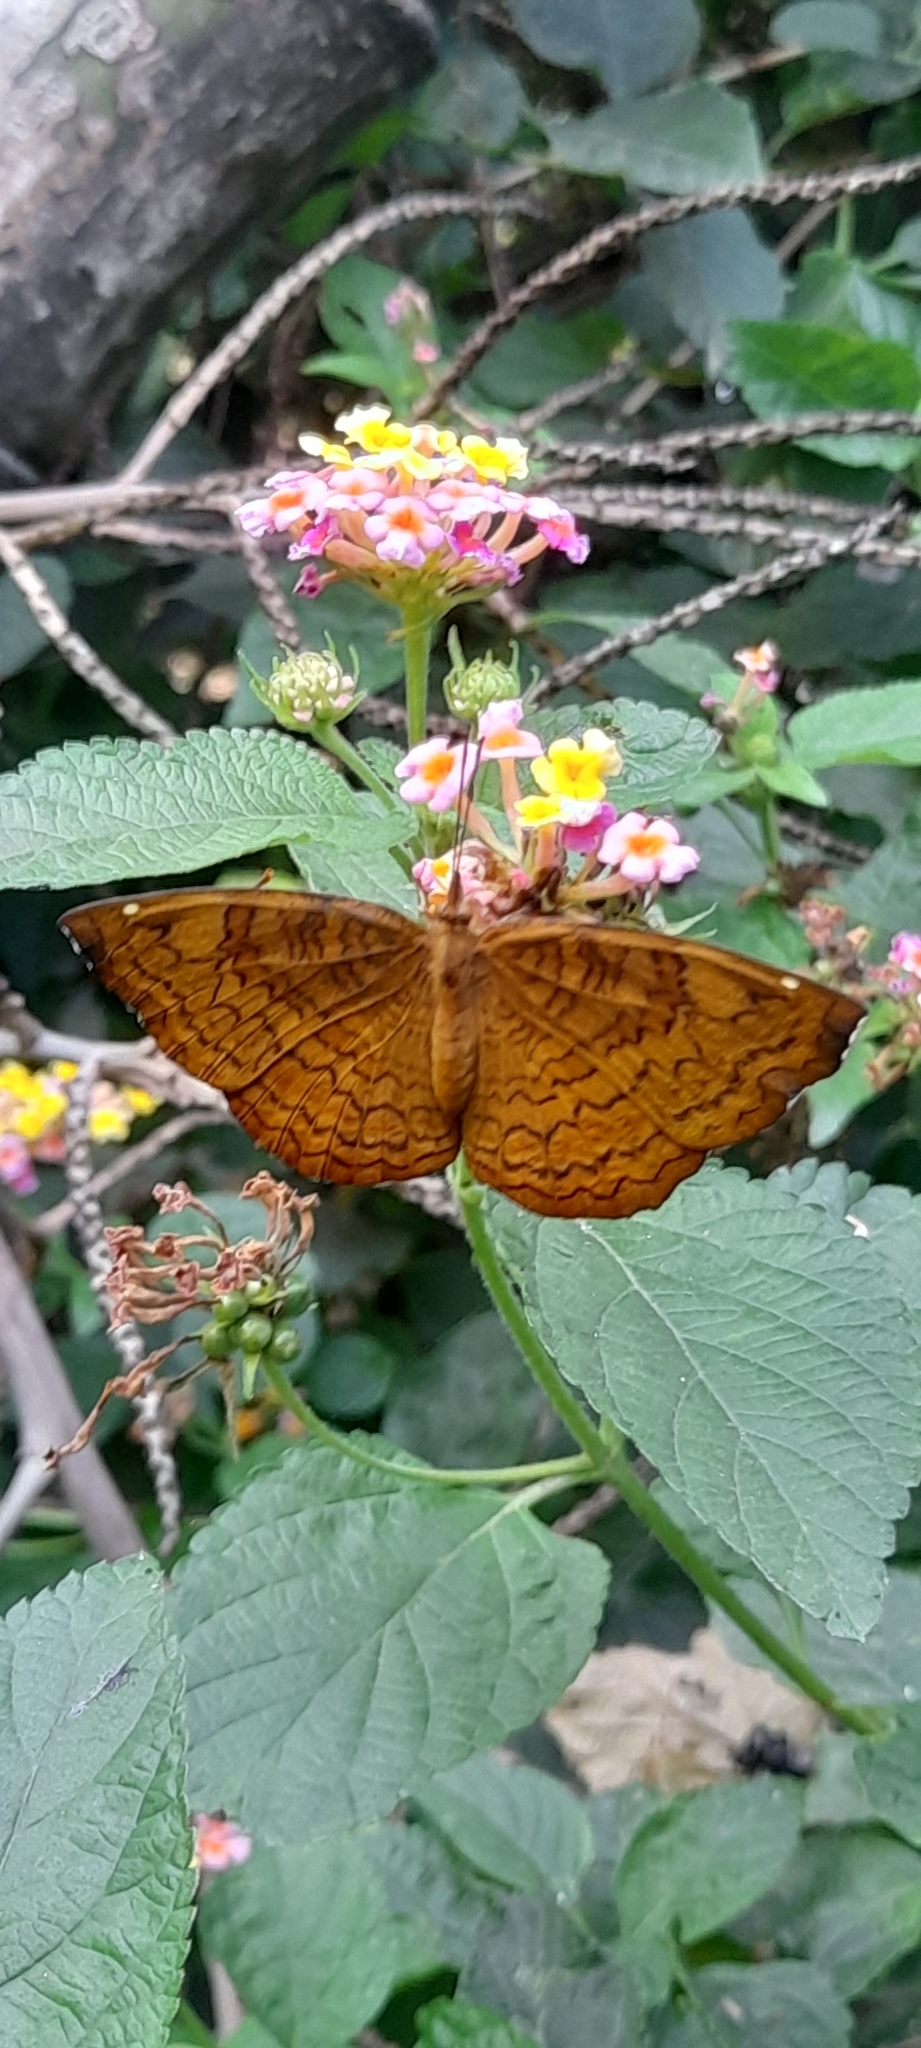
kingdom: Animalia
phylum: Arthropoda
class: Insecta
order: Lepidoptera
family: Nymphalidae
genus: Ariadne
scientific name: Ariadne merione
